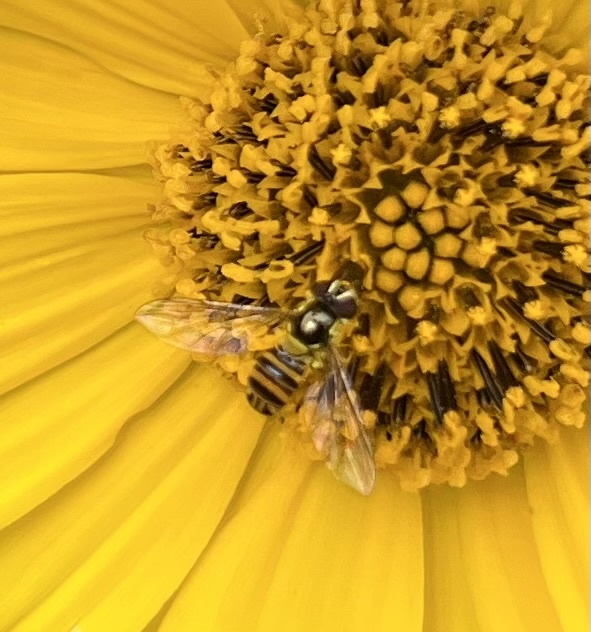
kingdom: Animalia
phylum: Arthropoda
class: Insecta
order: Diptera
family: Syrphidae
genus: Allograpta
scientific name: Allograpta obliqua
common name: Common oblique syrphid
